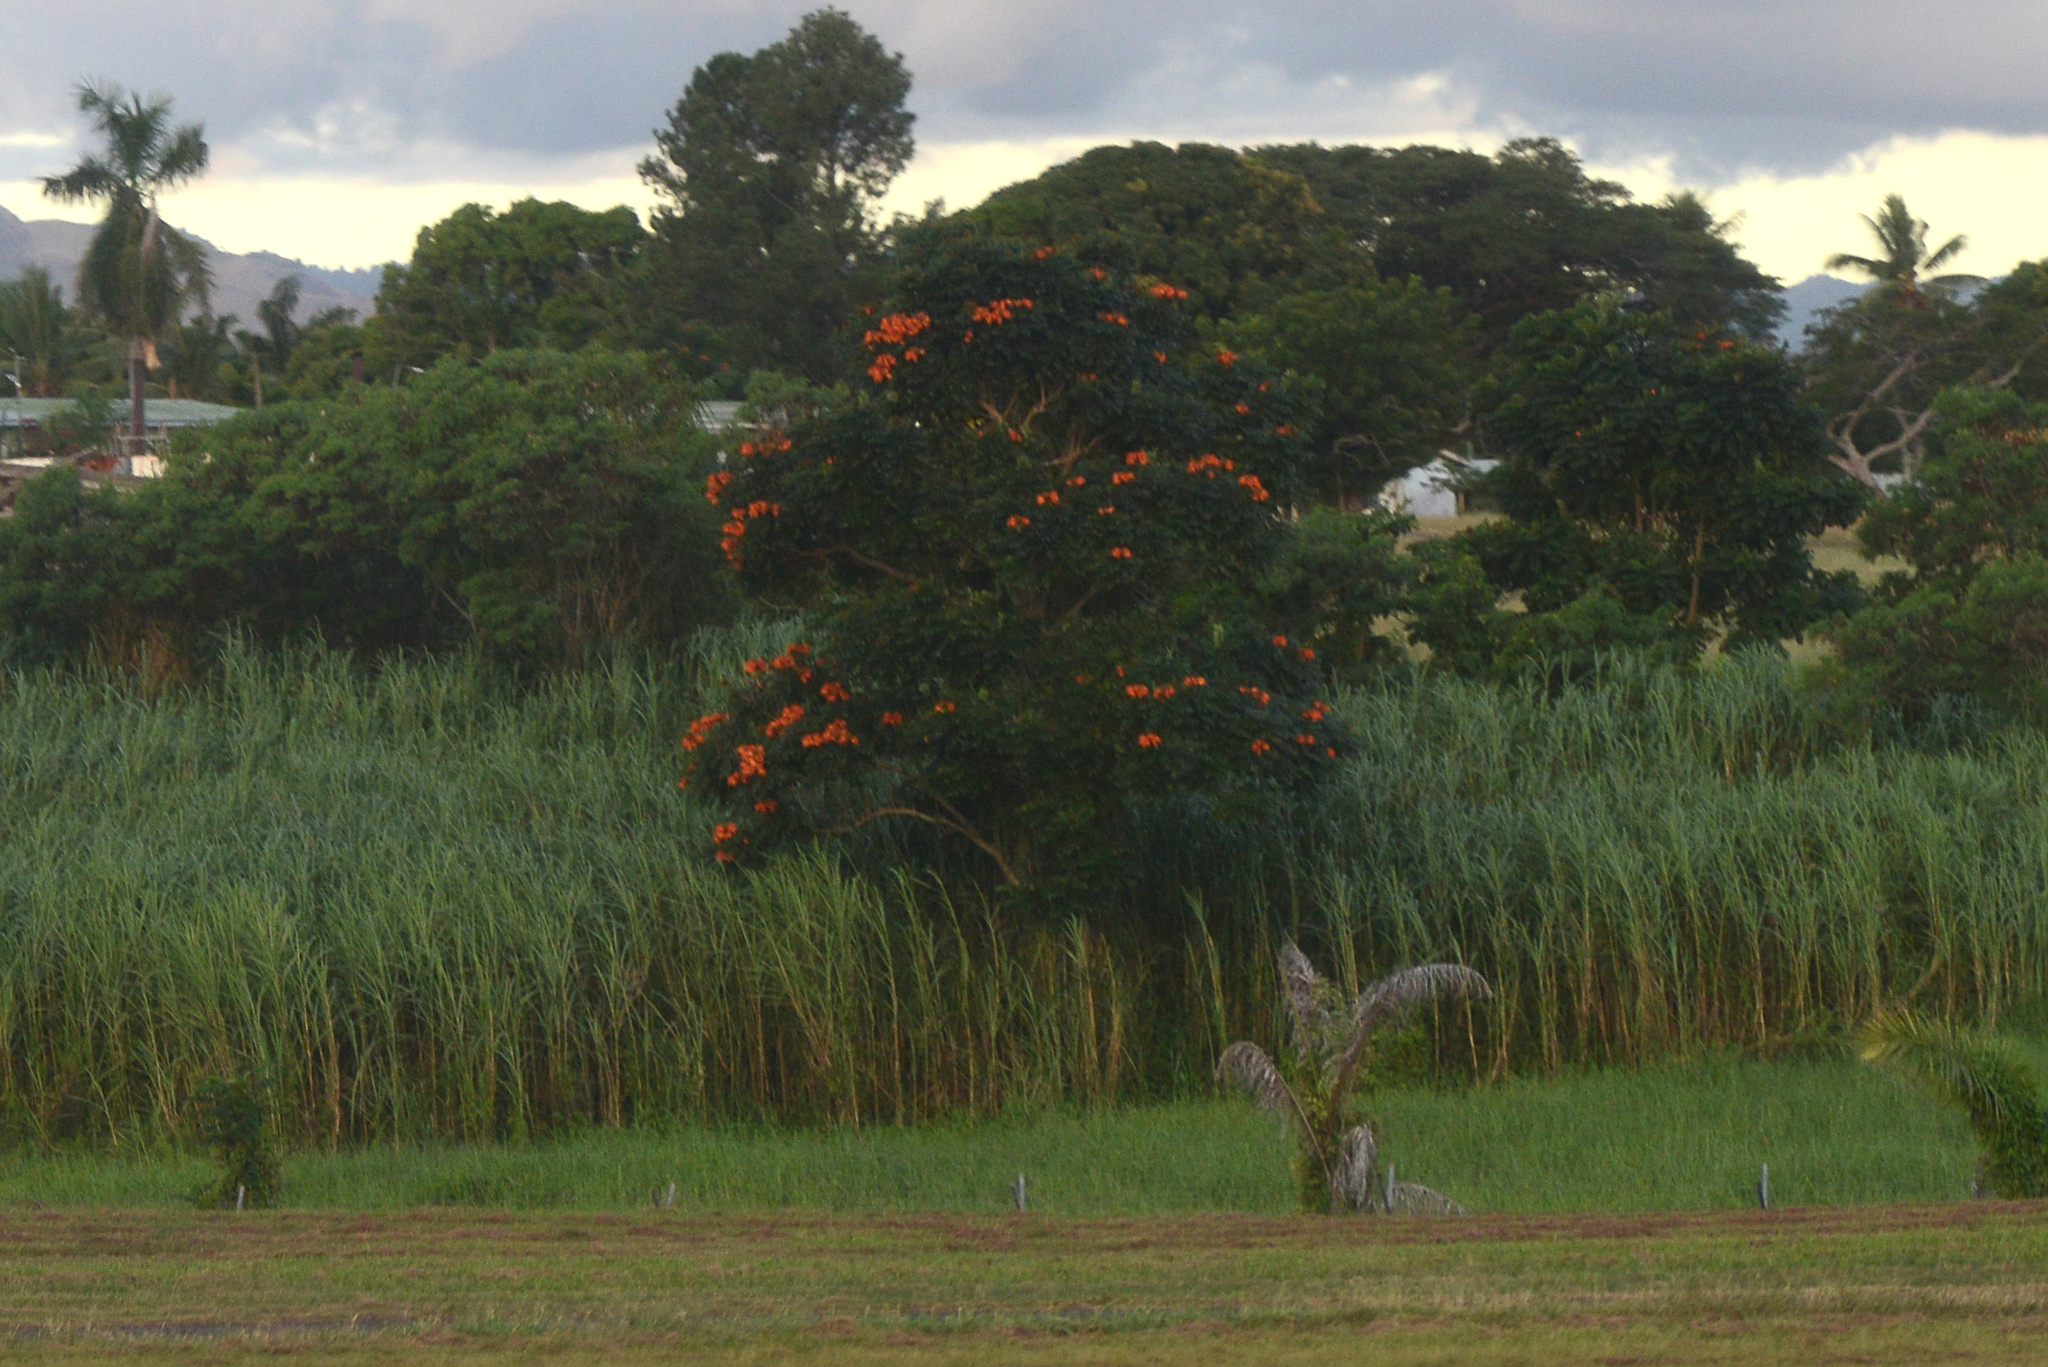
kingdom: Plantae
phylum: Tracheophyta
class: Magnoliopsida
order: Lamiales
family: Bignoniaceae
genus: Spathodea
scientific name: Spathodea campanulata
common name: African tuliptree
